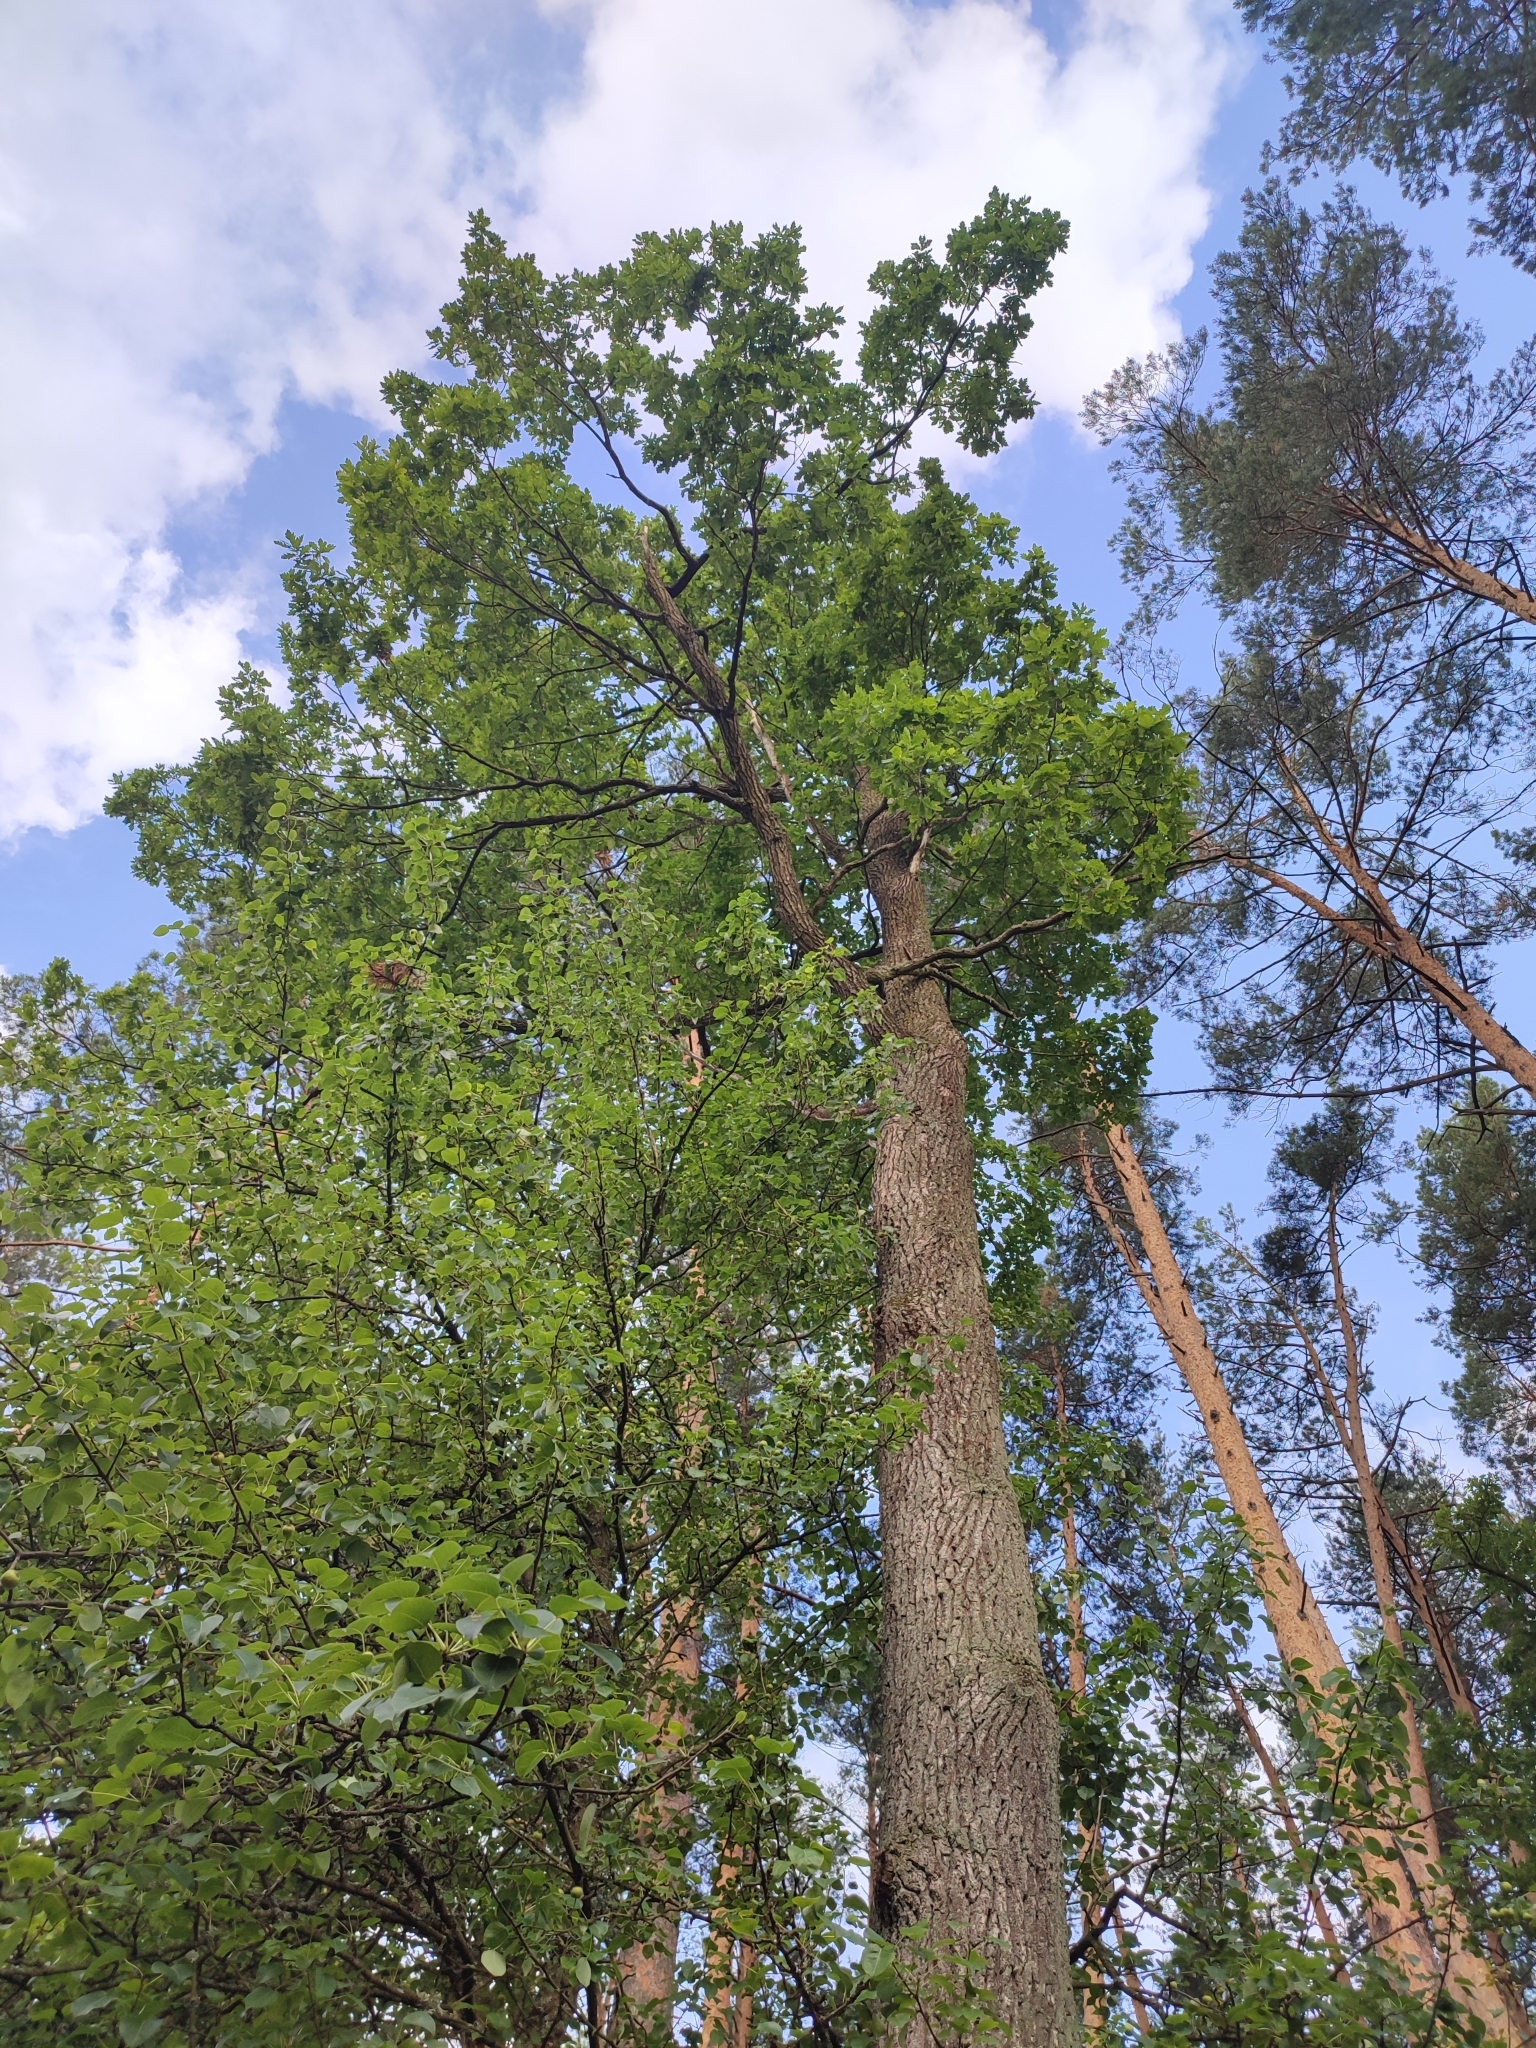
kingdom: Plantae
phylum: Tracheophyta
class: Magnoliopsida
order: Fagales
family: Fagaceae
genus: Quercus
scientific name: Quercus robur
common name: Pedunculate oak
